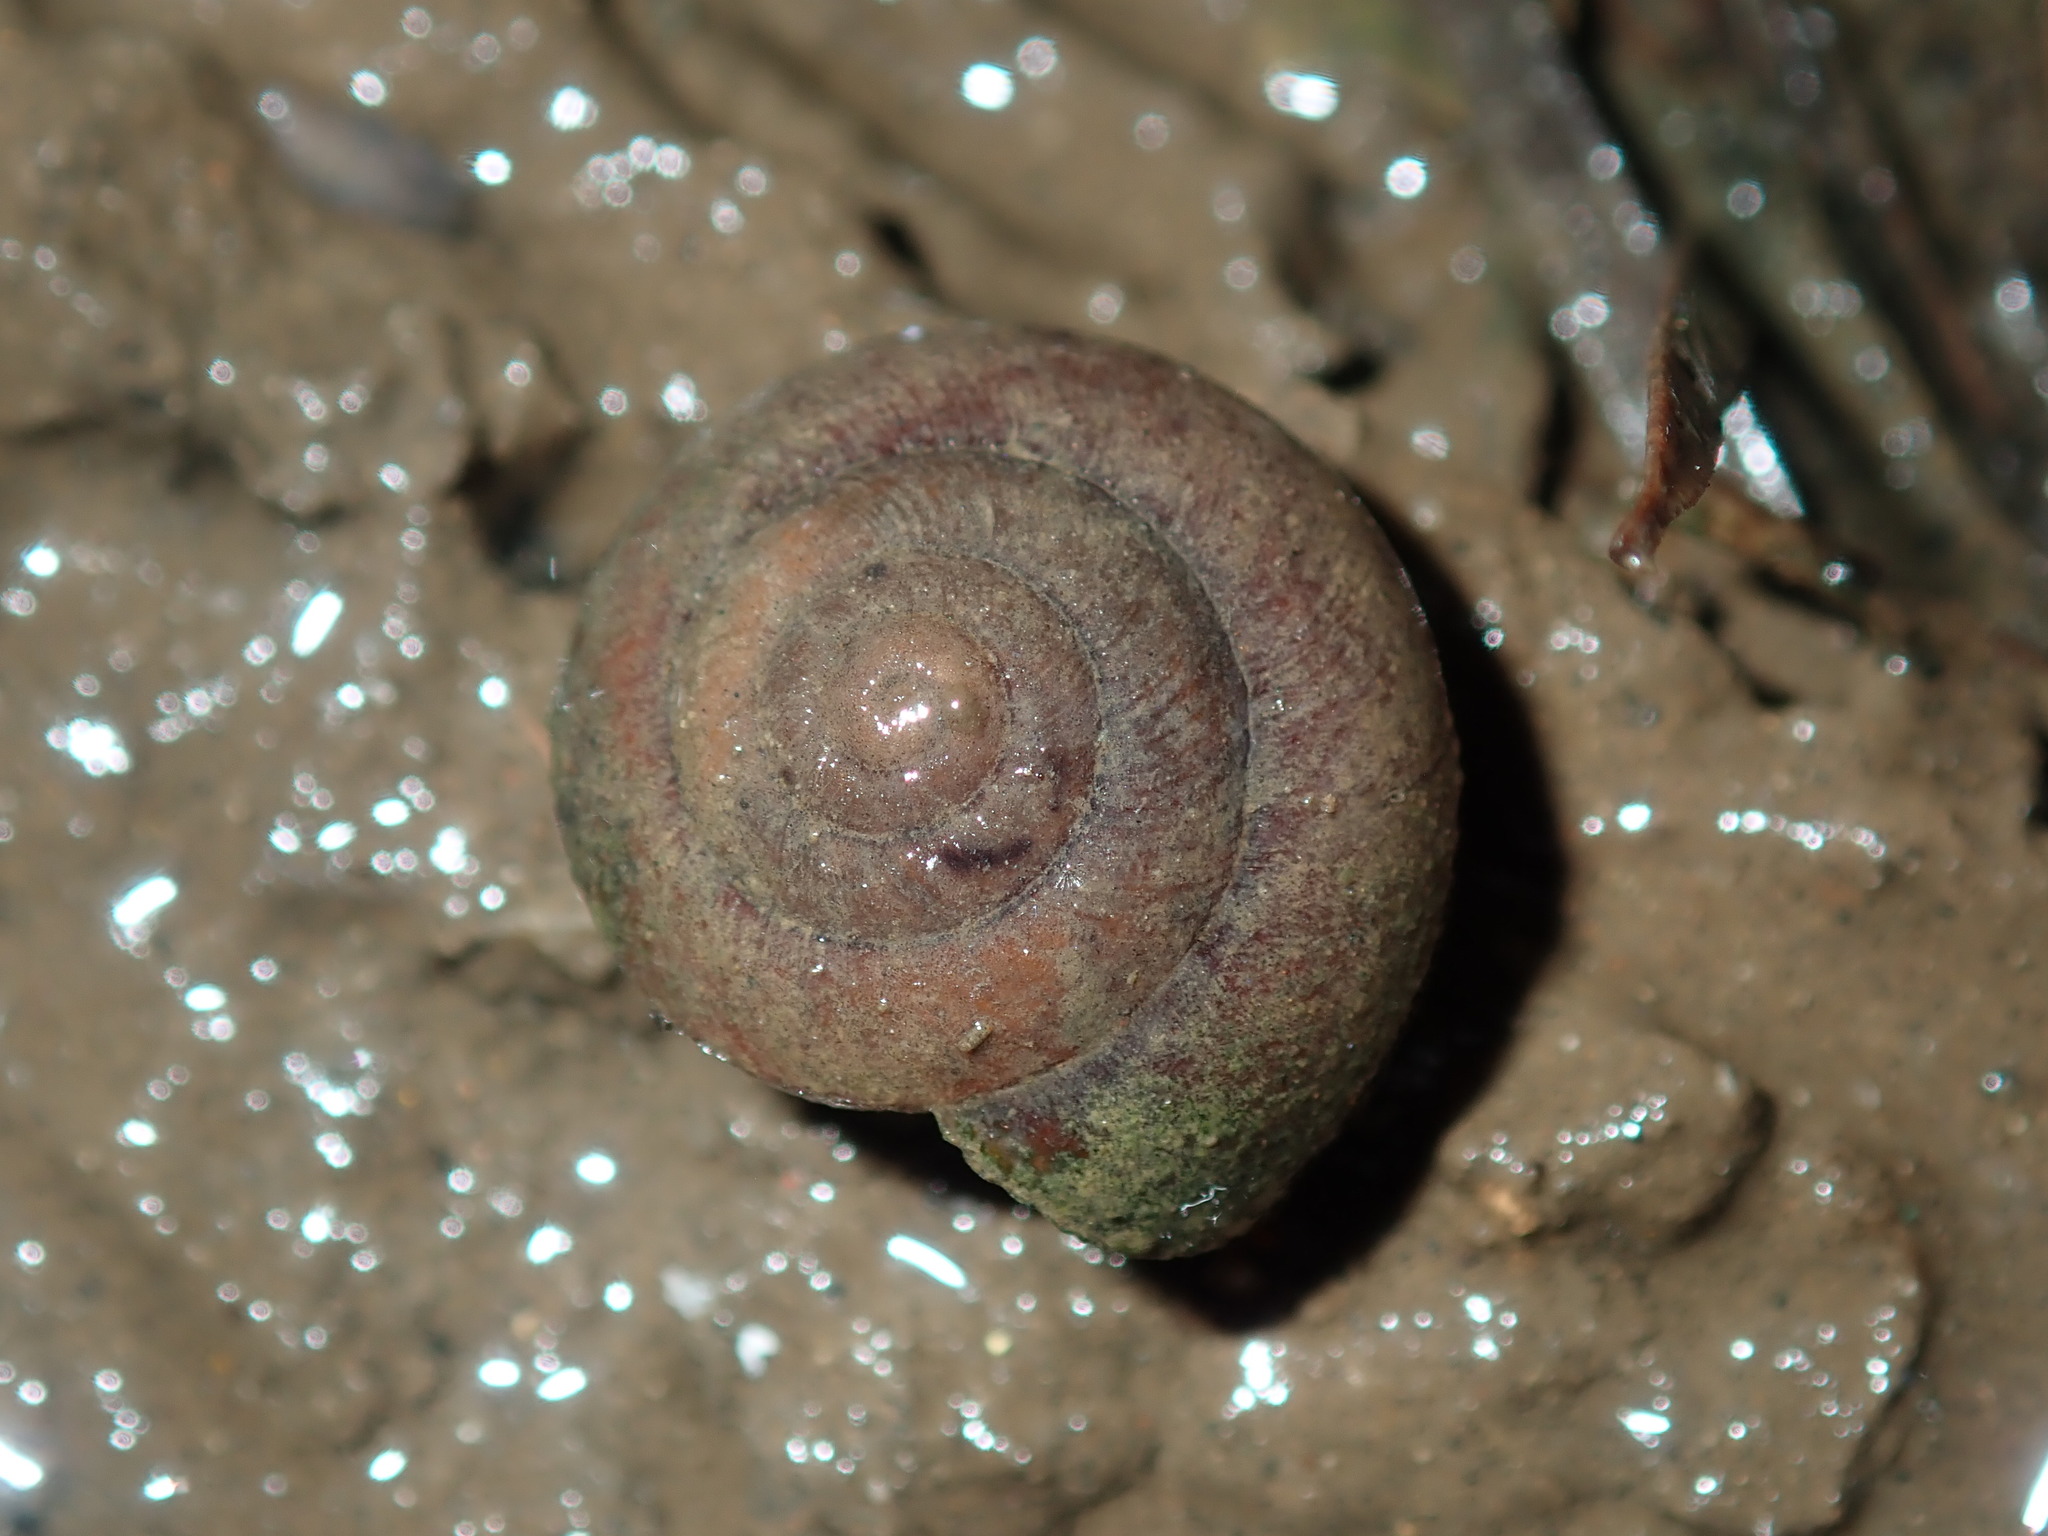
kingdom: Animalia
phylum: Mollusca
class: Gastropoda
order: Stylommatophora
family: Camaenidae
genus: Sauroconcha
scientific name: Sauroconcha sheai
